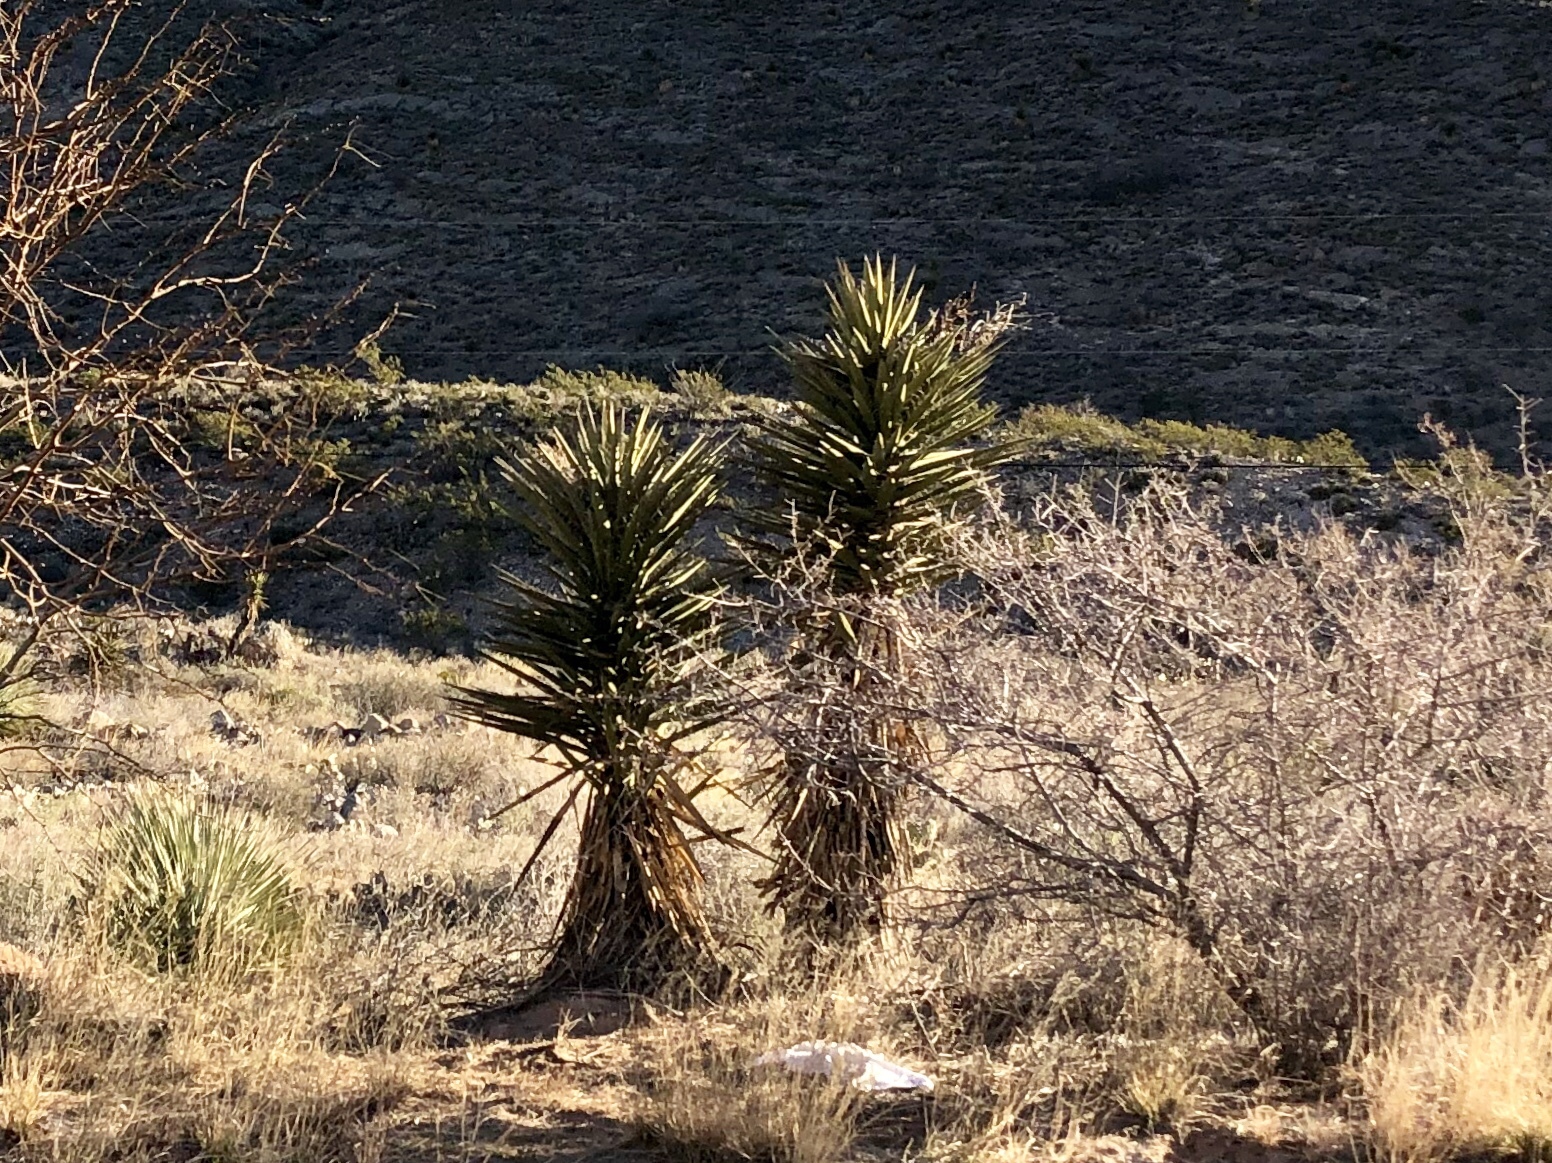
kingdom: Plantae
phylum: Tracheophyta
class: Liliopsida
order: Asparagales
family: Asparagaceae
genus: Yucca
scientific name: Yucca treculiana
